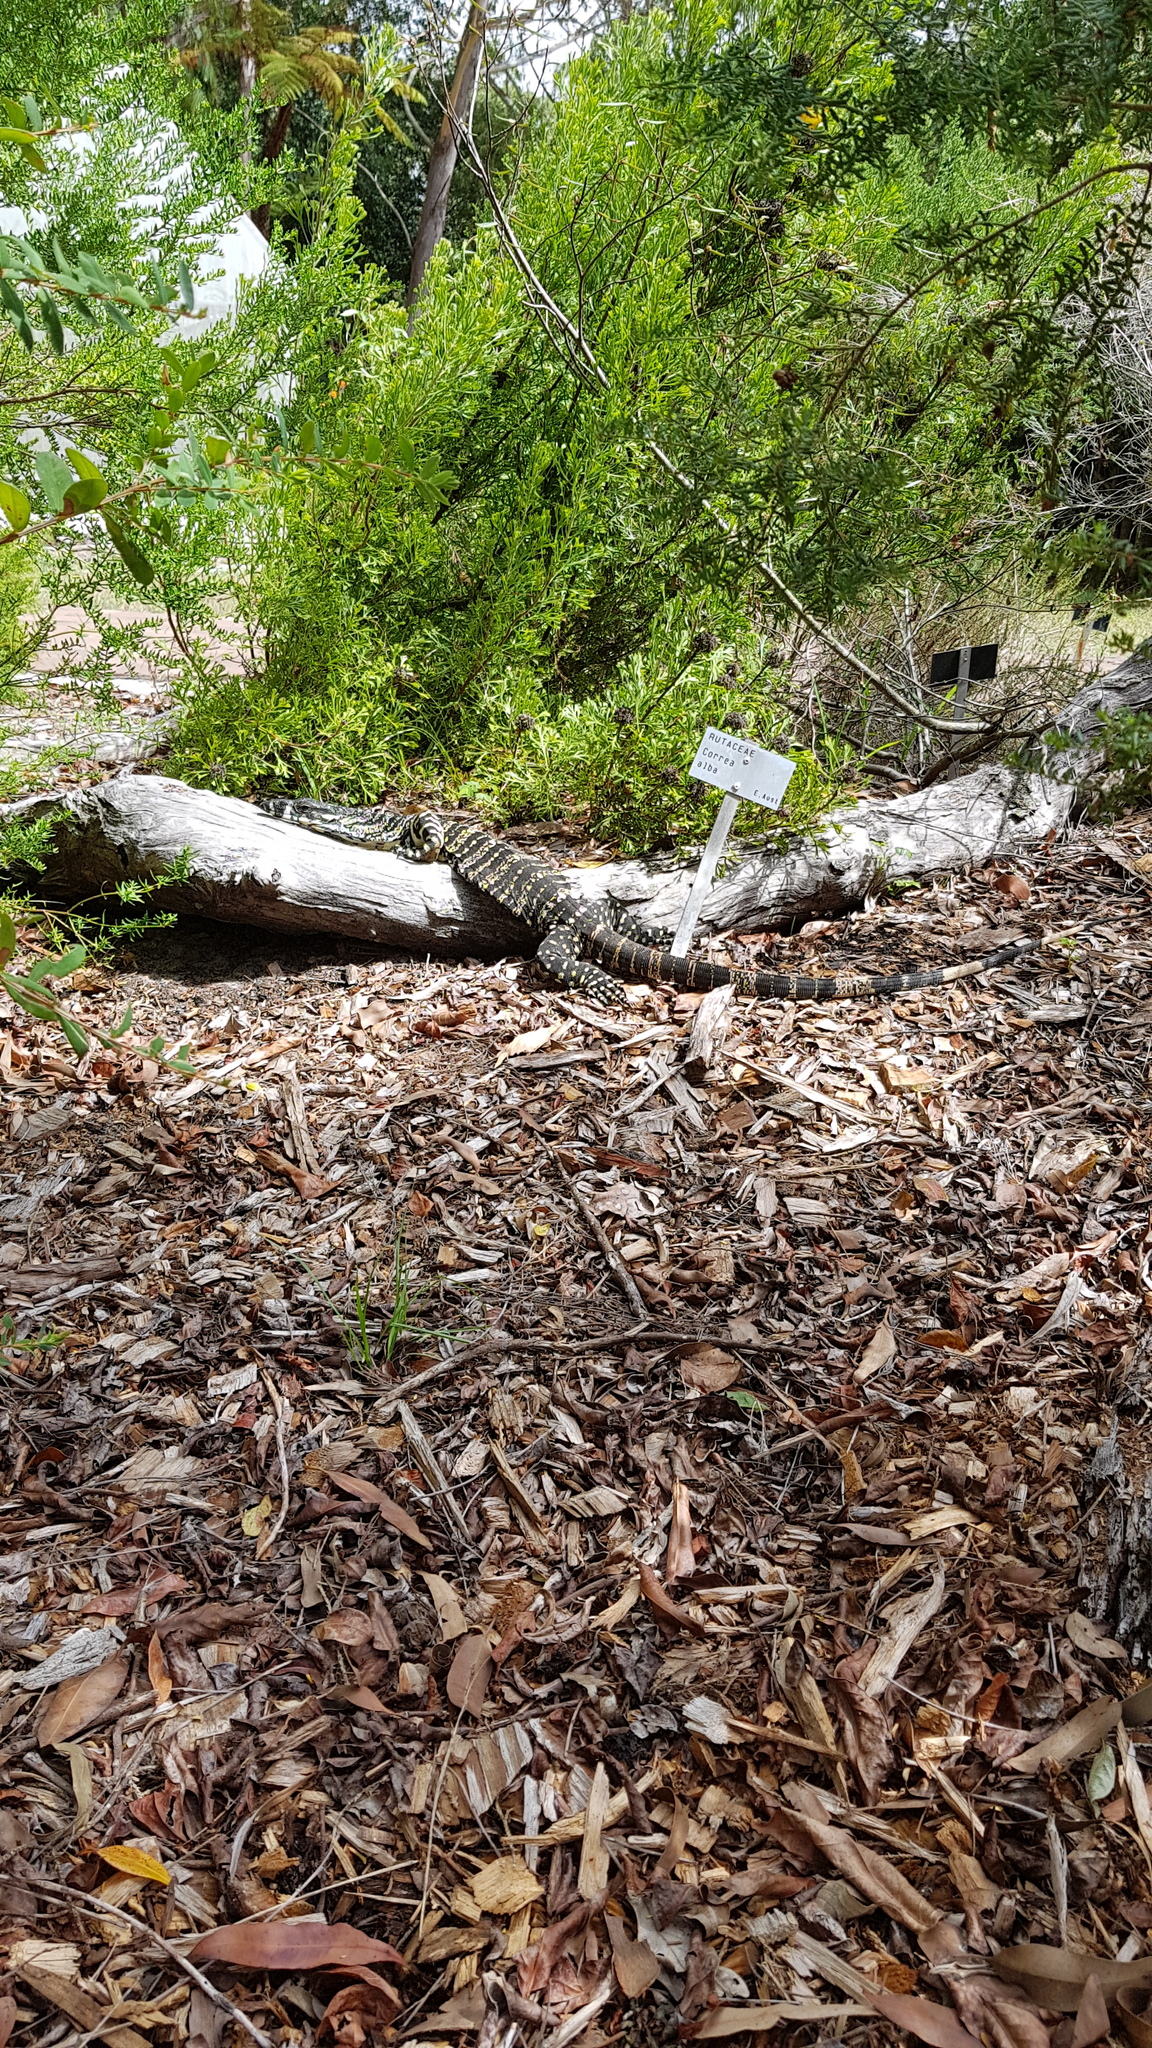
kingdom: Animalia
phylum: Chordata
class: Squamata
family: Varanidae
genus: Varanus
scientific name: Varanus varius
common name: Lace monitor
